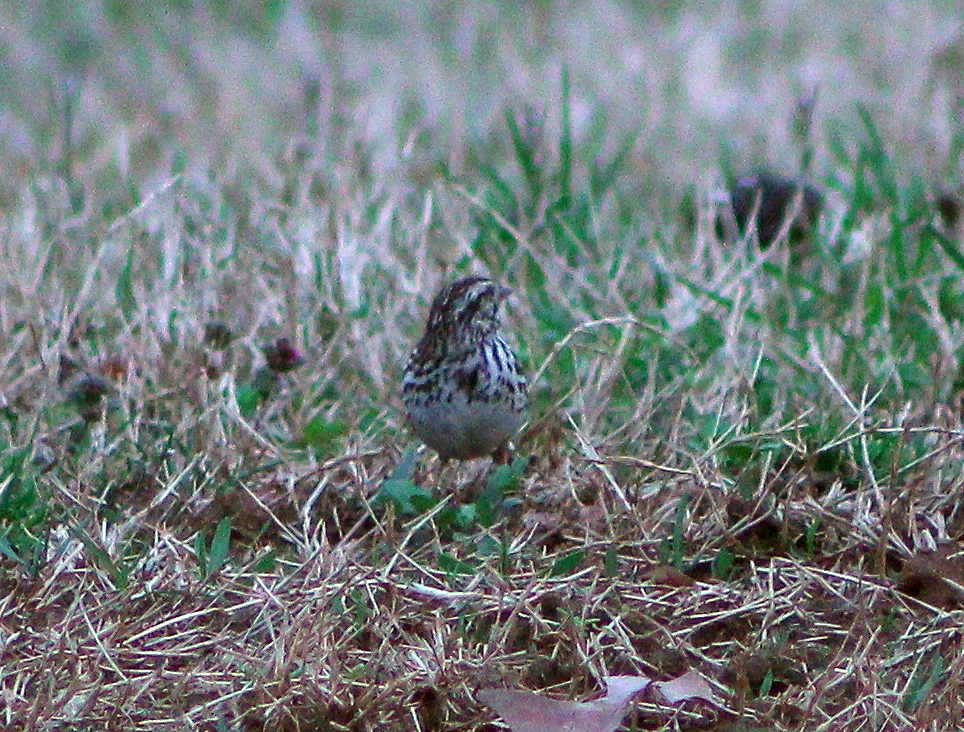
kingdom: Animalia
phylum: Chordata
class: Aves
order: Passeriformes
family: Passerellidae
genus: Melospiza
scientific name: Melospiza melodia
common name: Song sparrow
